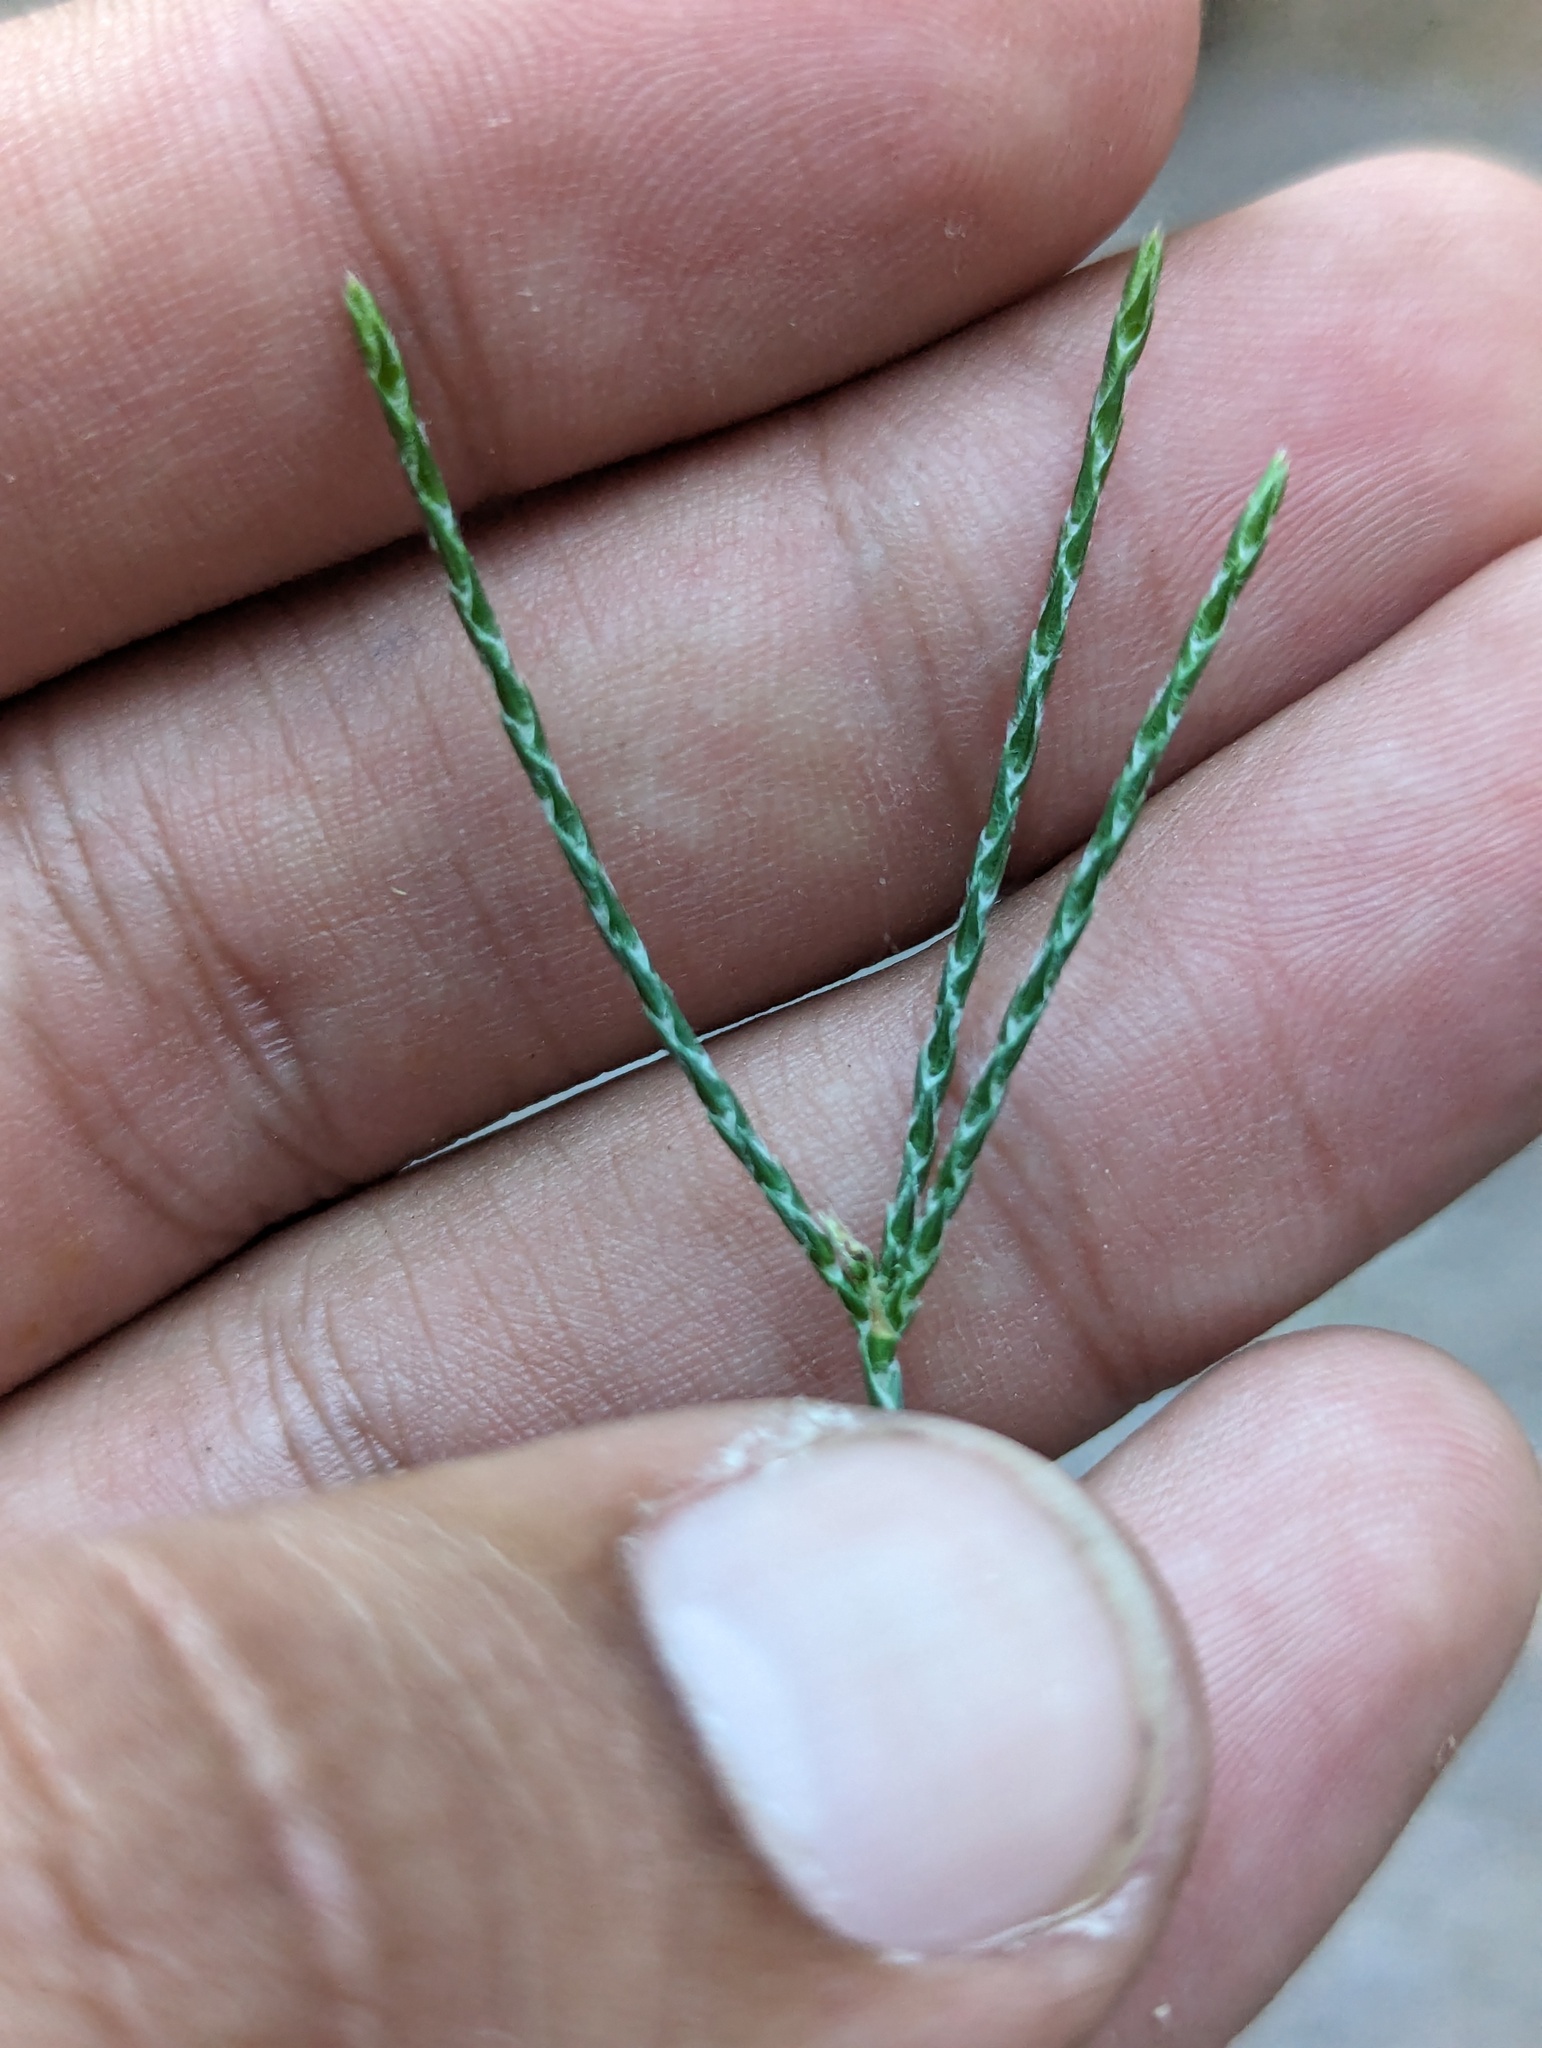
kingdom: Plantae
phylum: Tracheophyta
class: Magnoliopsida
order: Lamiales
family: Acanthaceae
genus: Elytraria
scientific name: Elytraria imbricata
